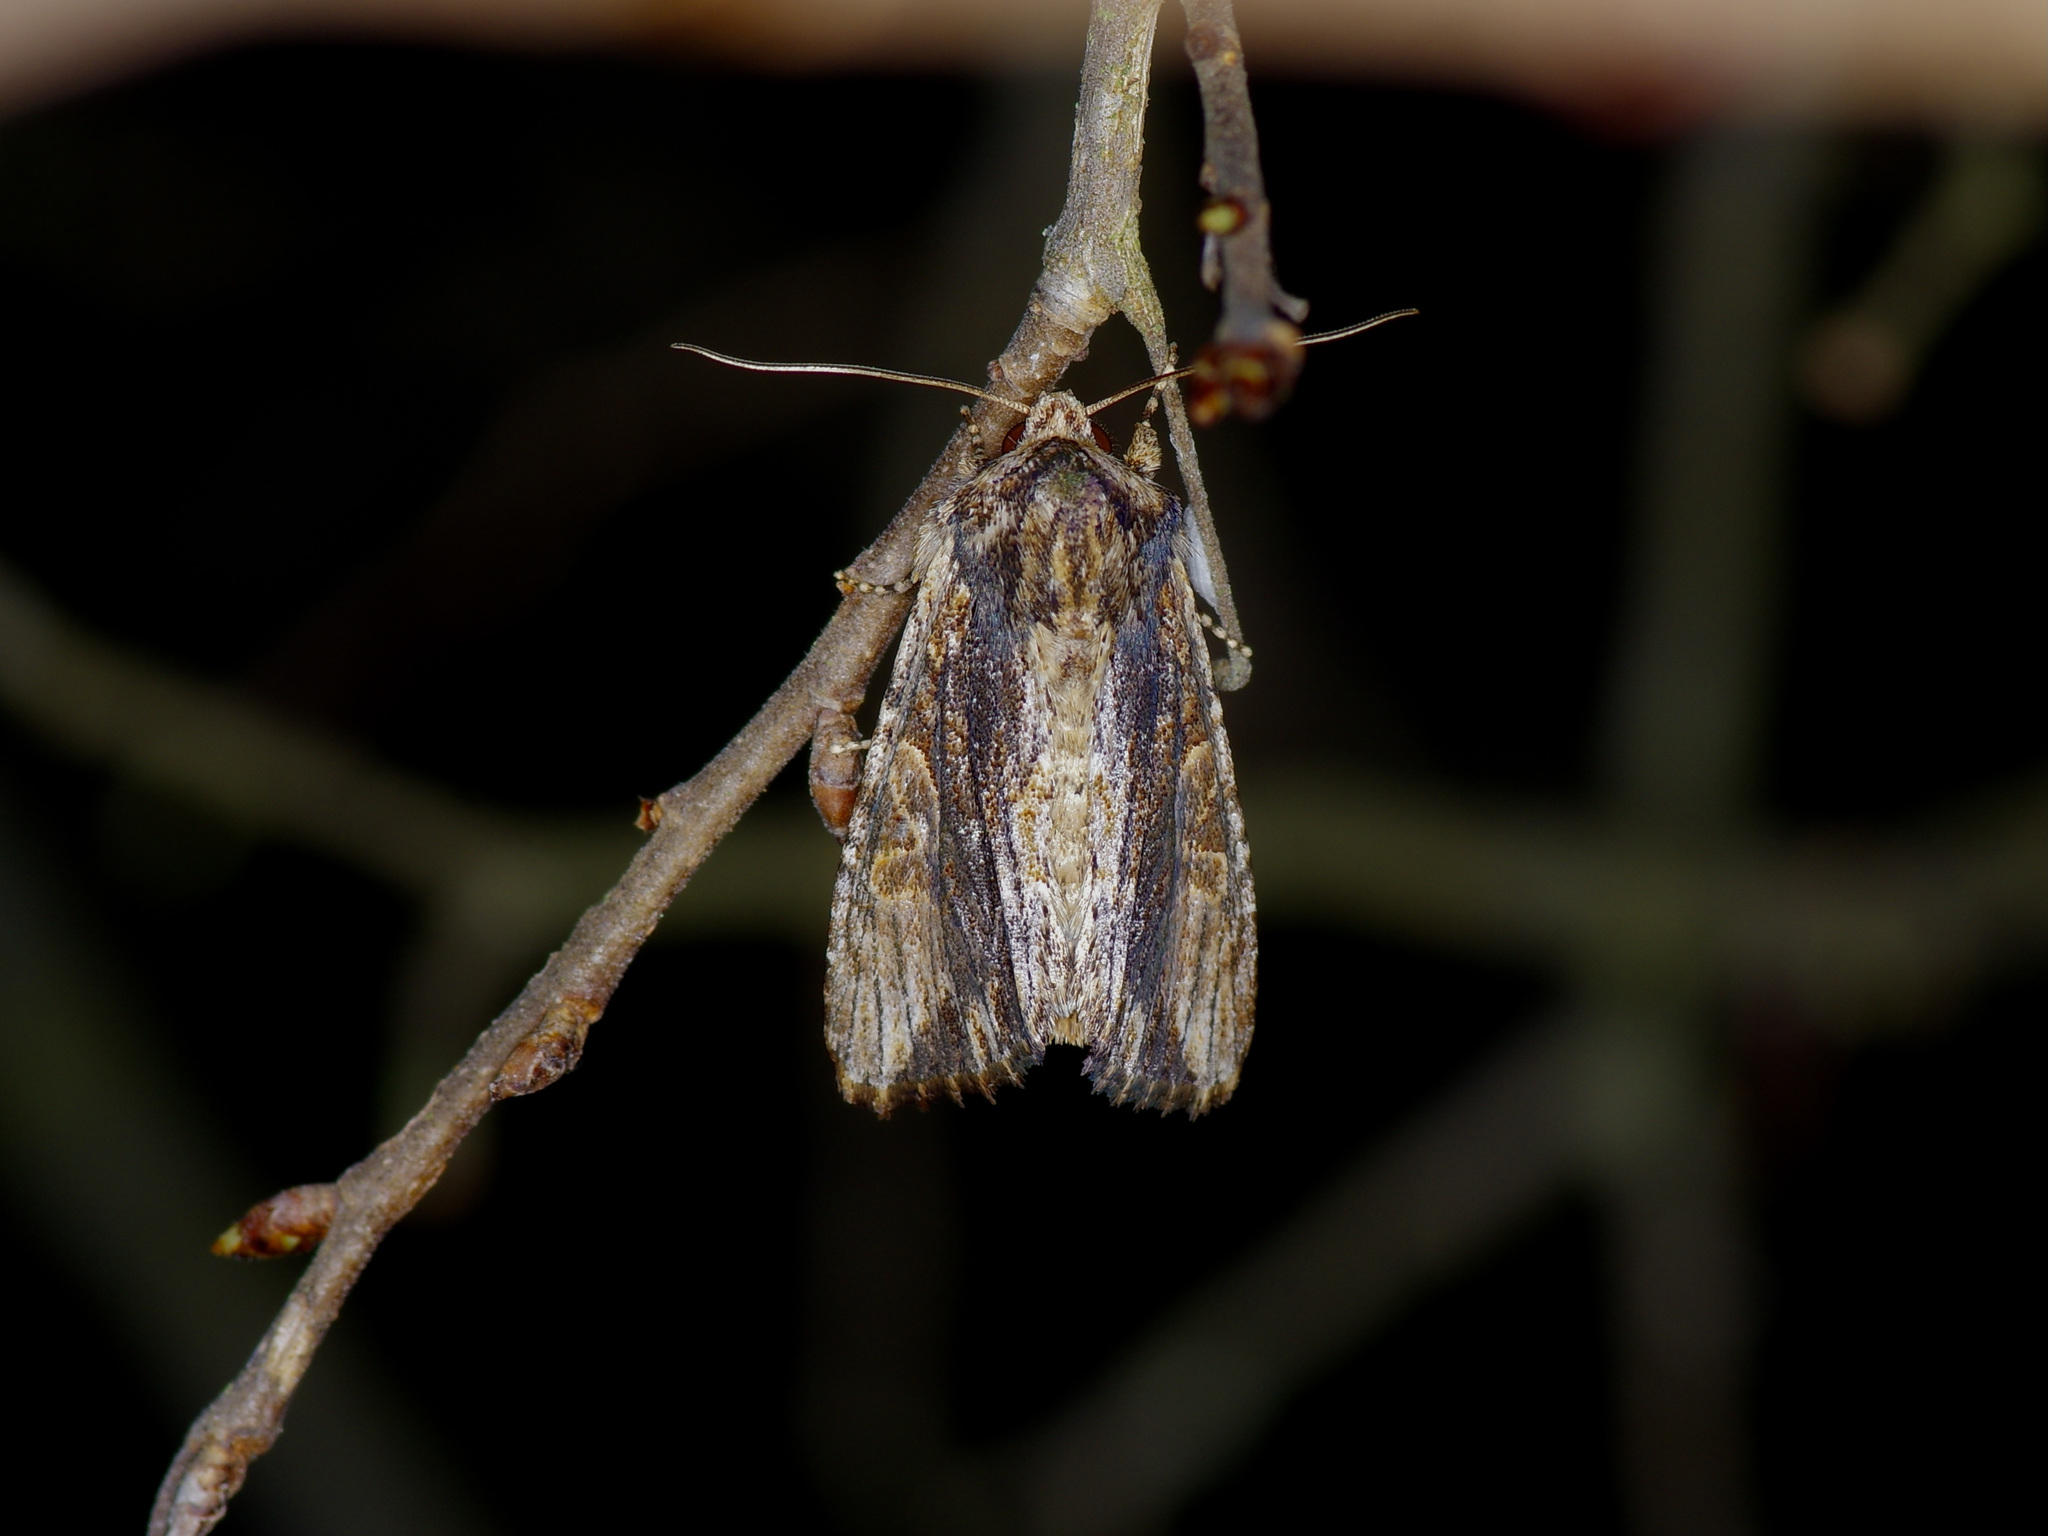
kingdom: Animalia
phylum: Arthropoda
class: Insecta
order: Lepidoptera
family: Noctuidae
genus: Achatia
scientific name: Achatia mucens
